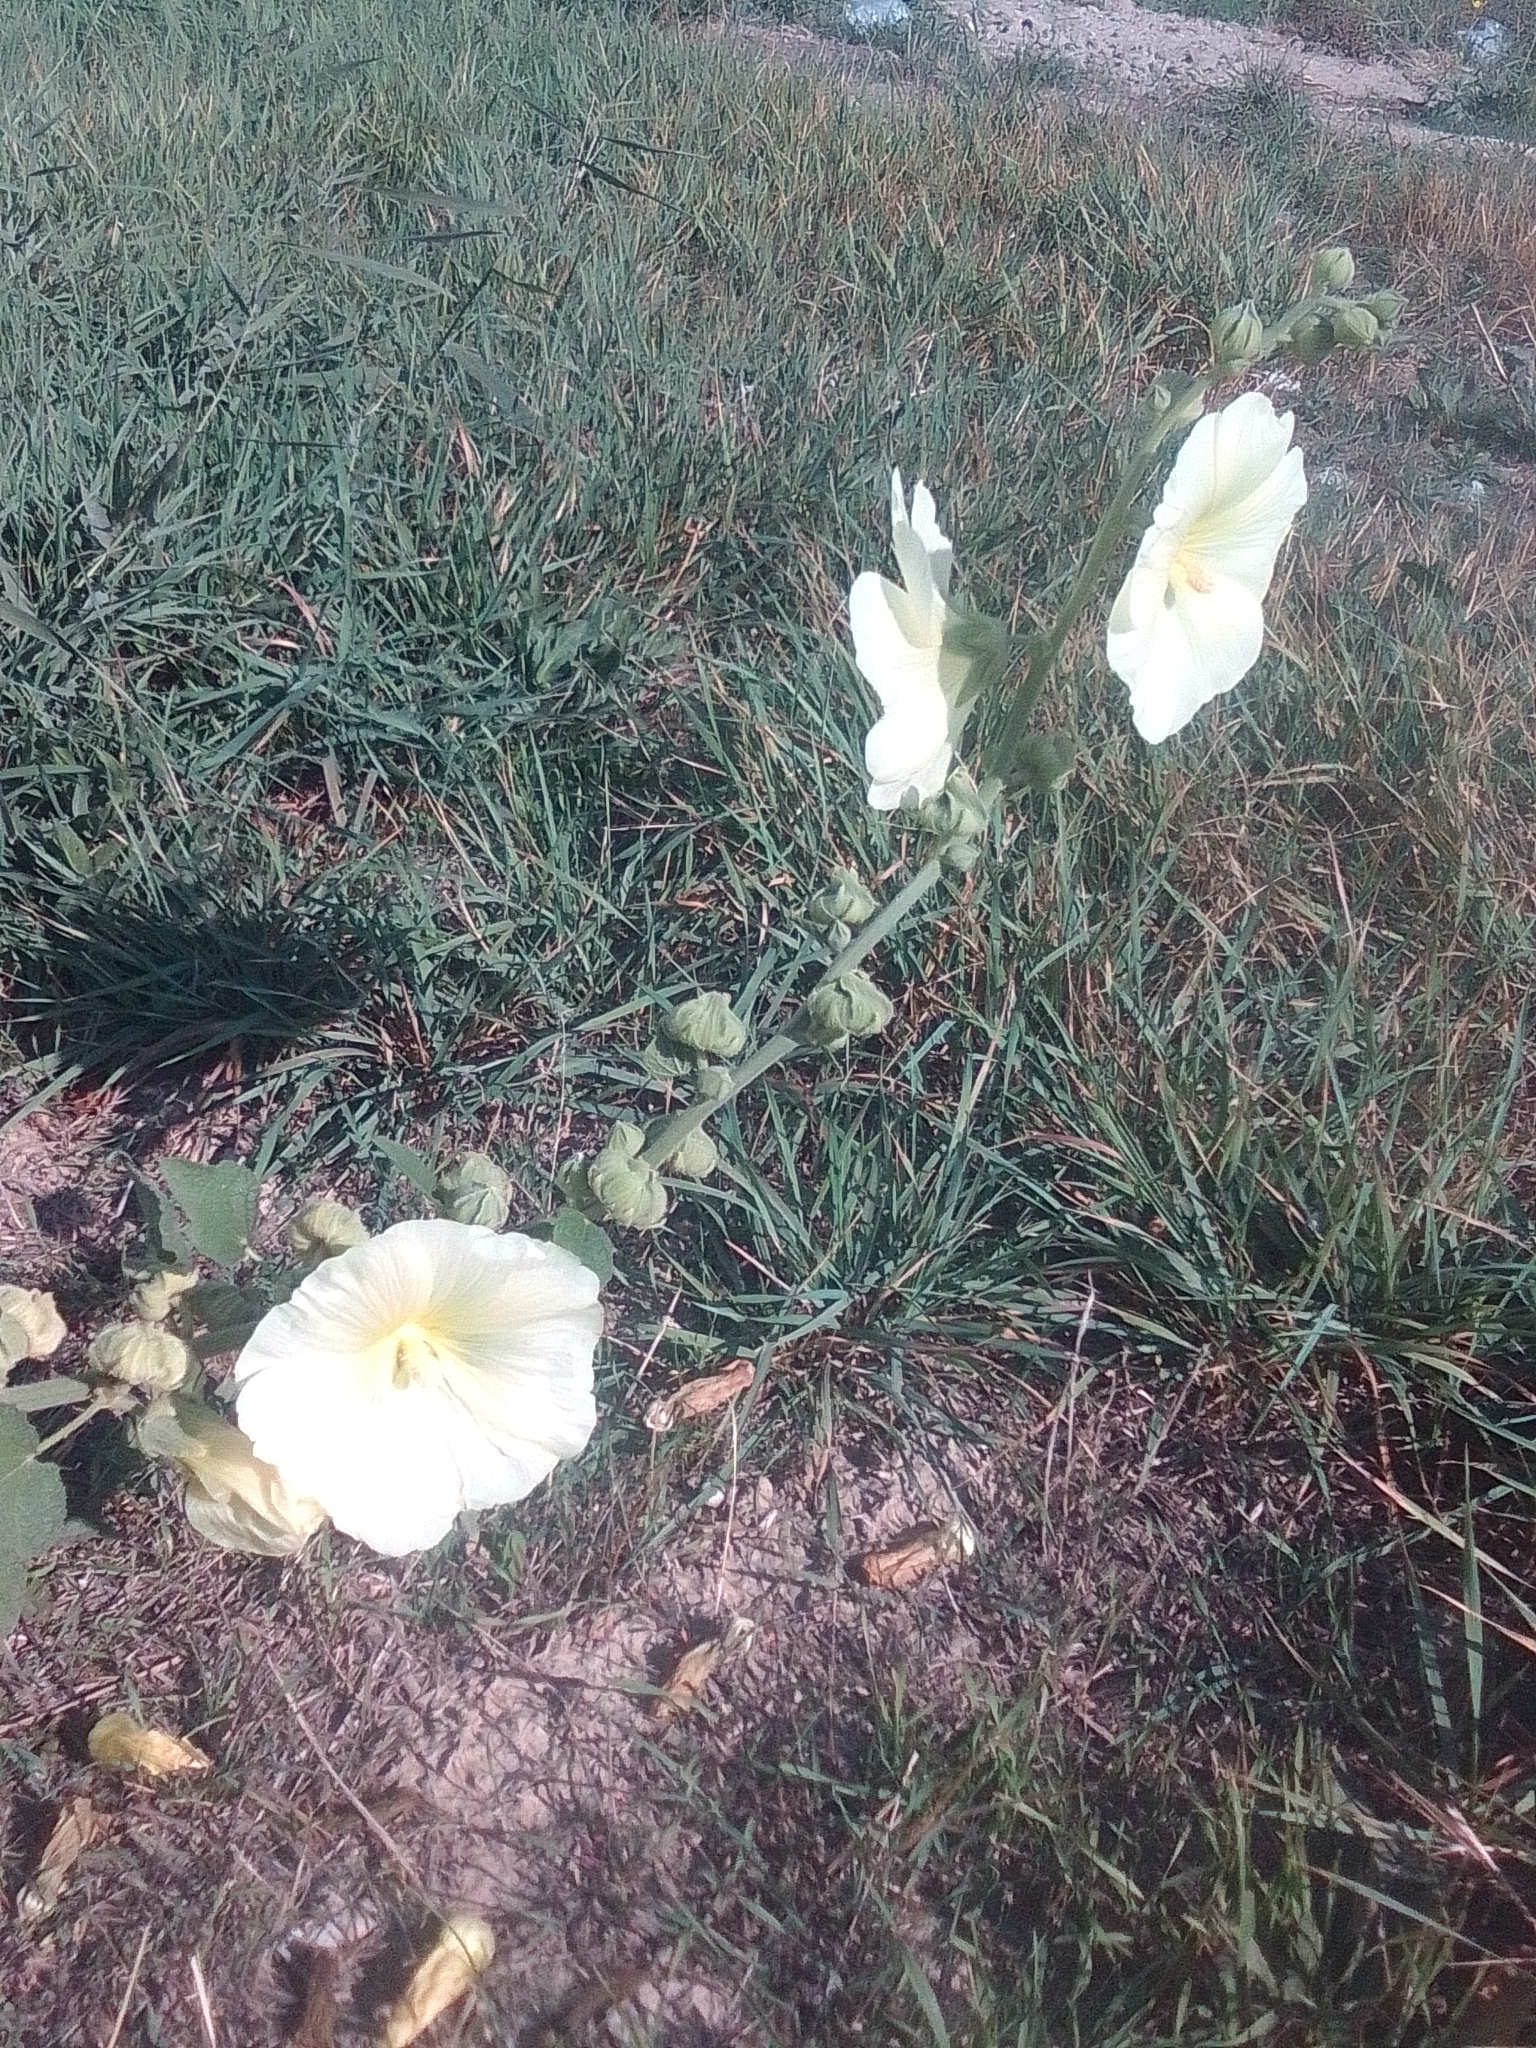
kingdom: Plantae
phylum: Tracheophyta
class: Magnoliopsida
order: Malvales
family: Malvaceae
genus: Alcea
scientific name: Alcea rugosa
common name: Russian hollyhock
